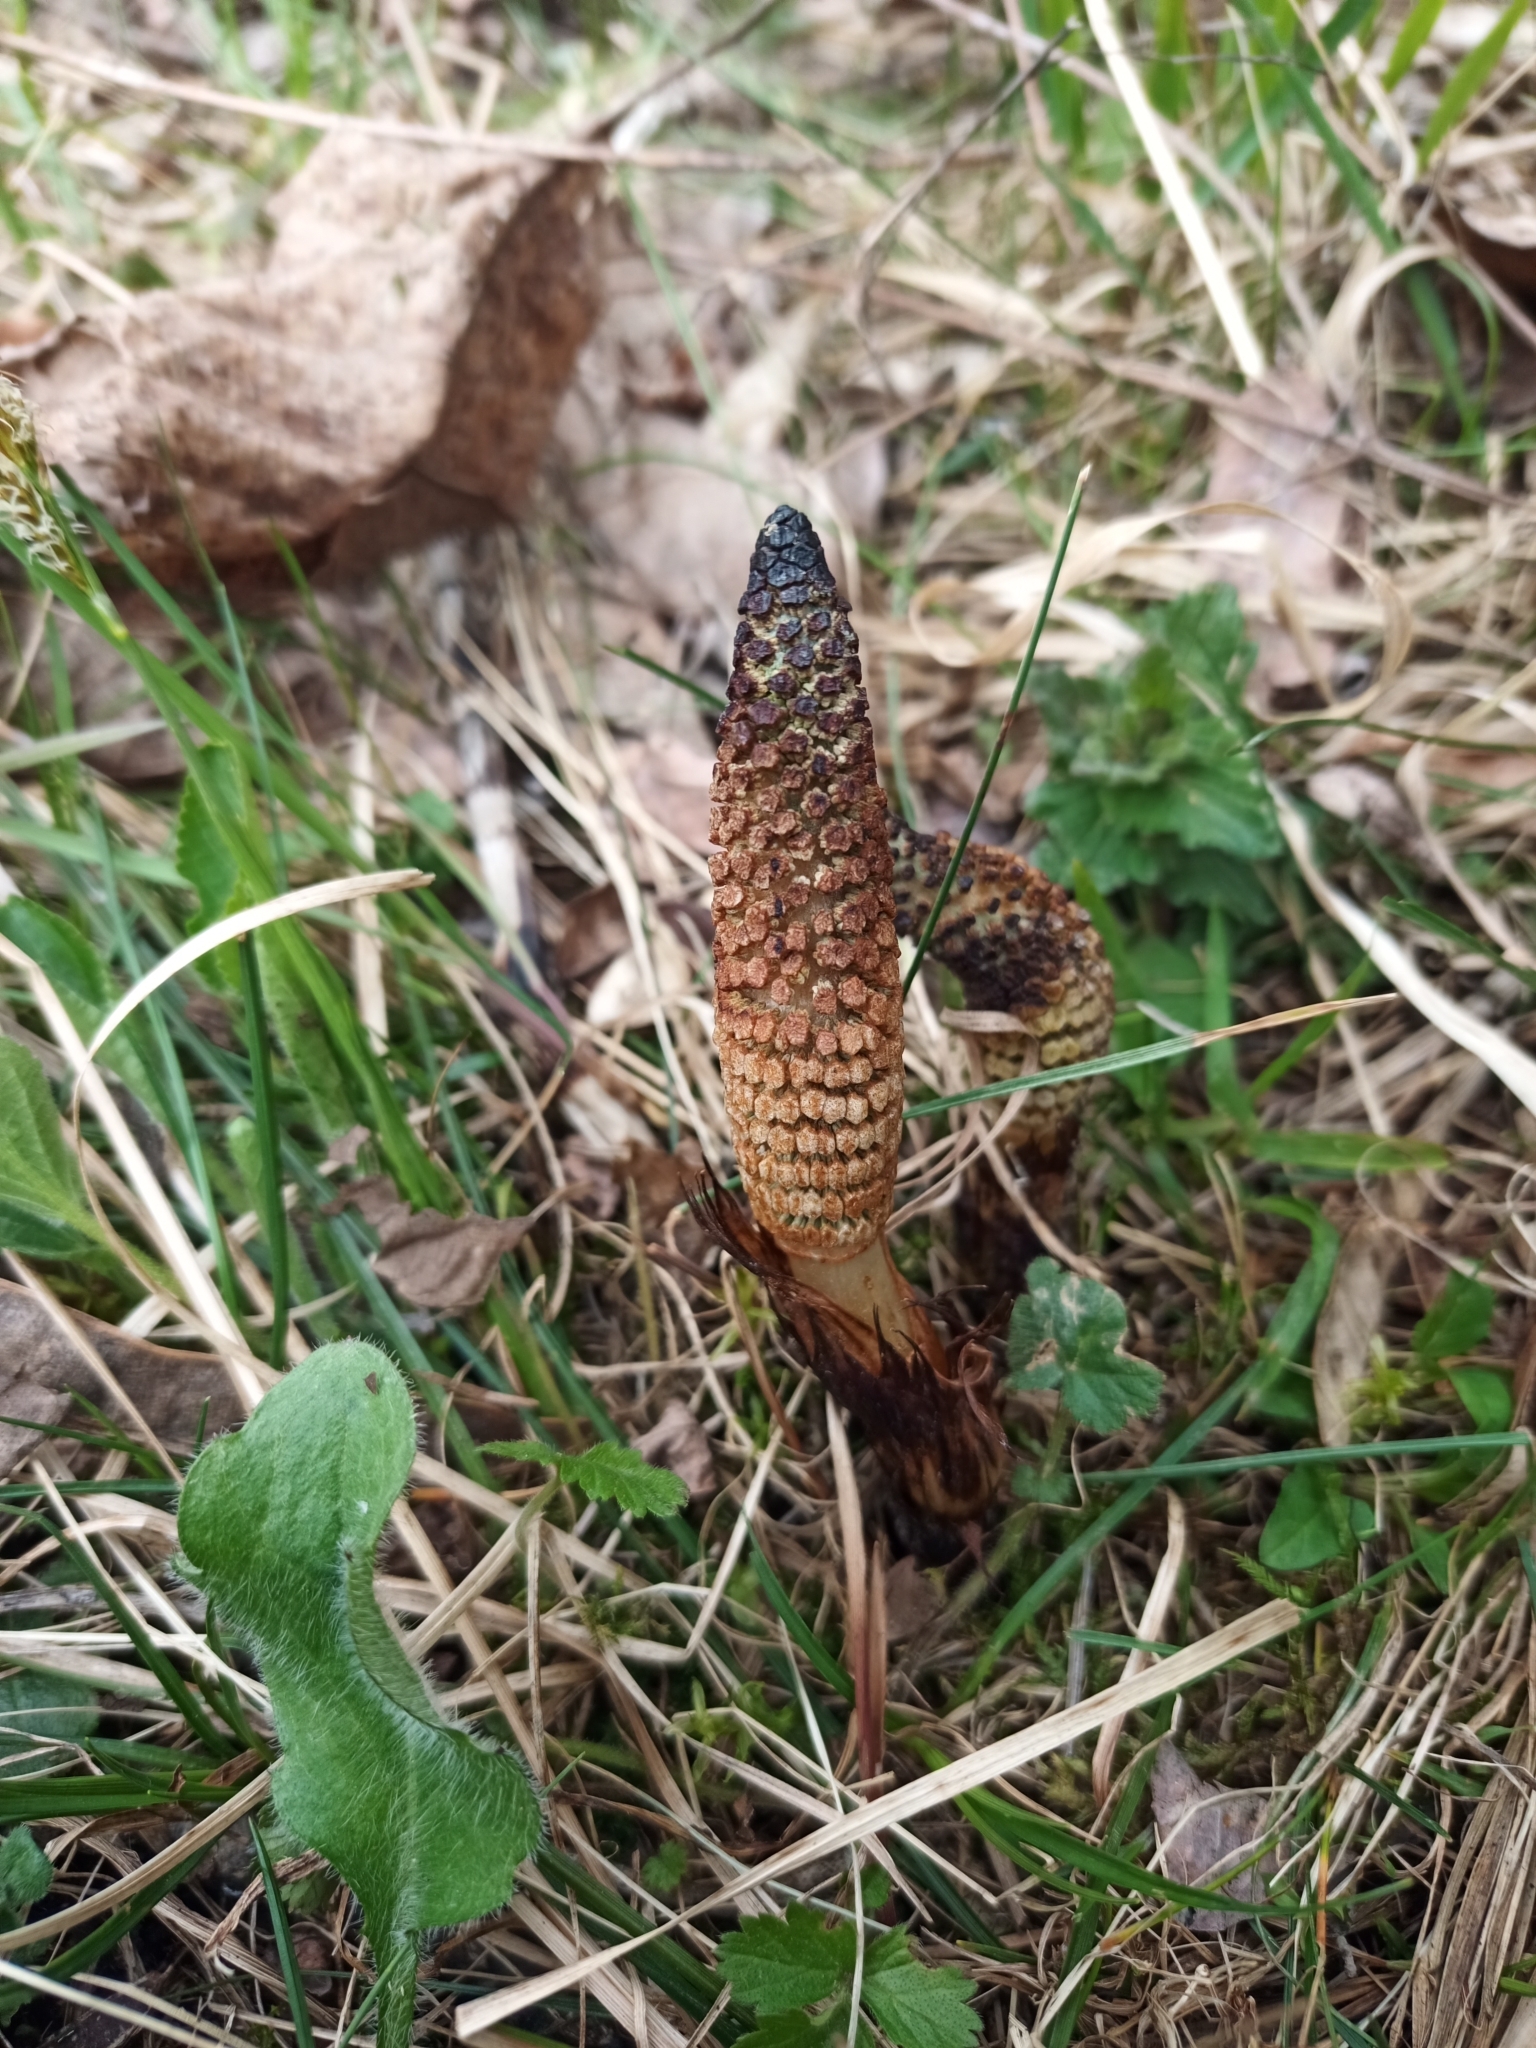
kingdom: Plantae
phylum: Tracheophyta
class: Polypodiopsida
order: Equisetales
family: Equisetaceae
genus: Equisetum
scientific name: Equisetum telmateia
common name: Great horsetail
